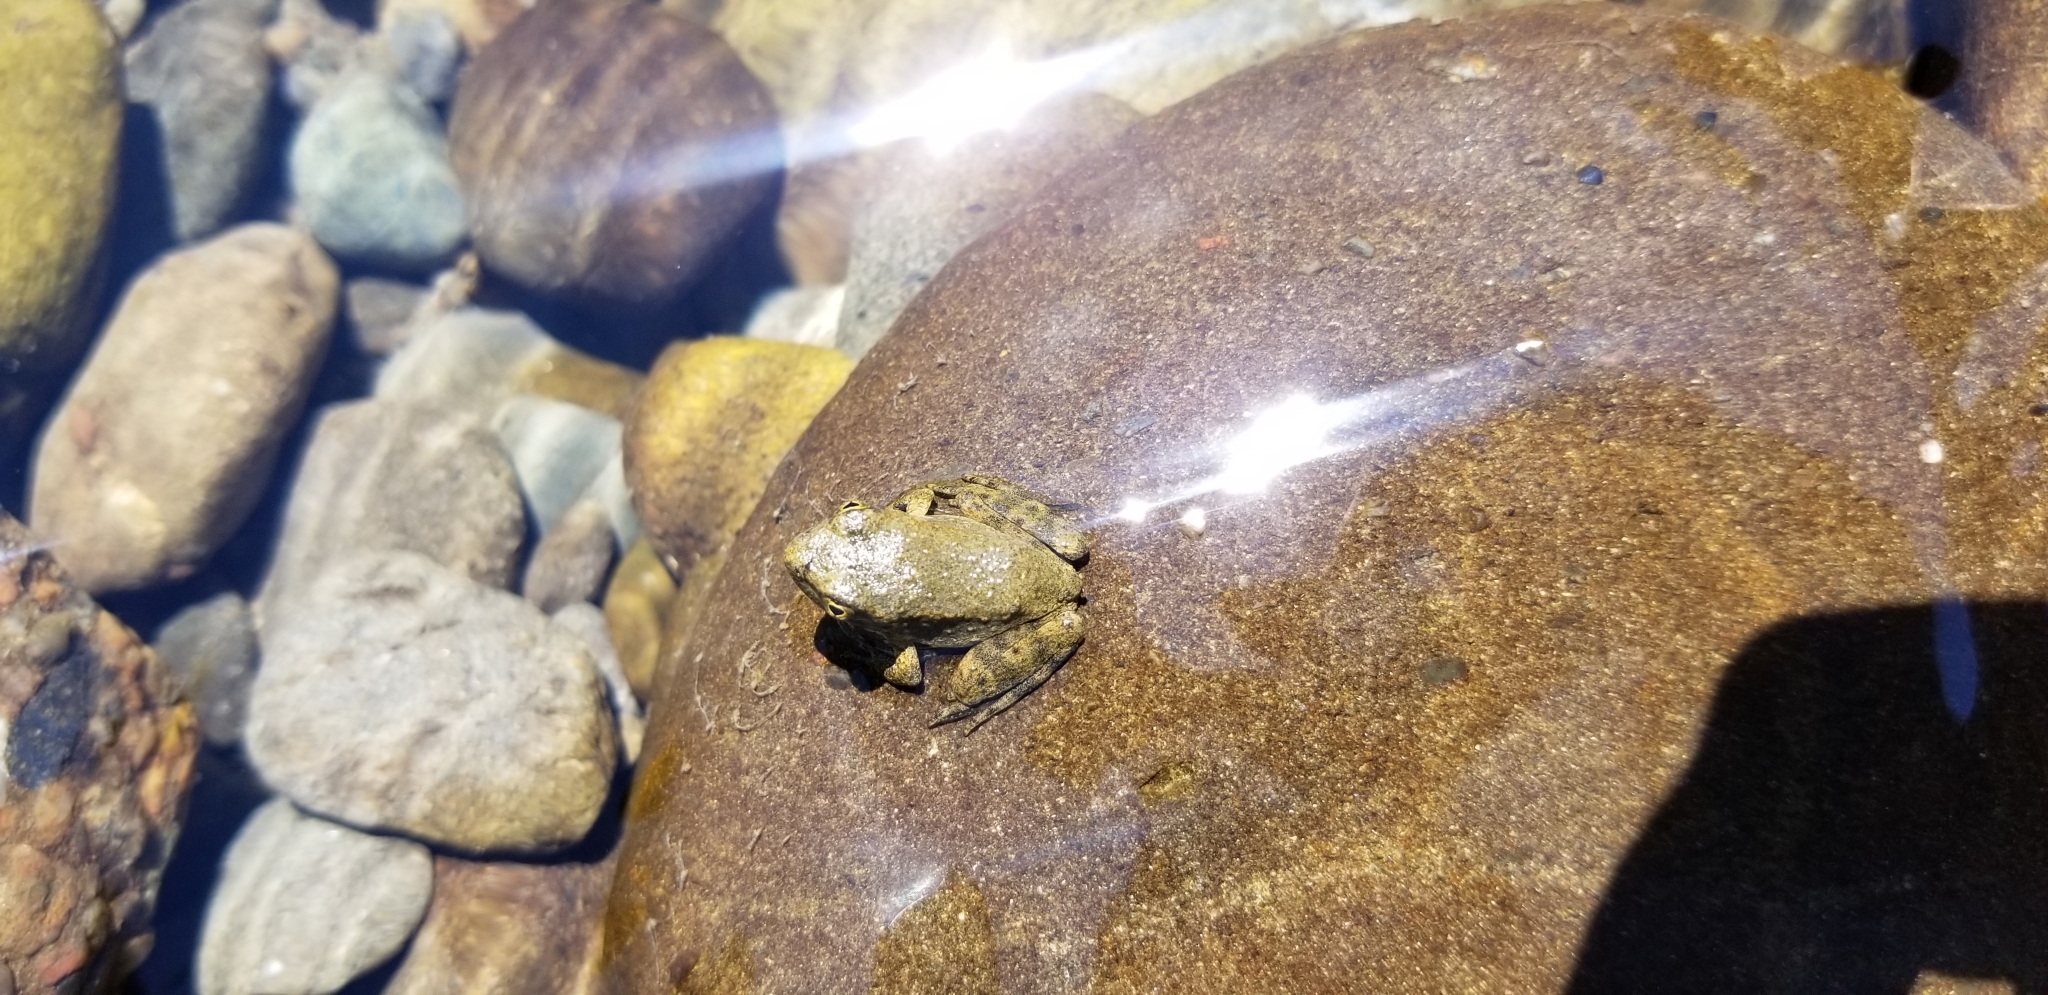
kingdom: Animalia
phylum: Chordata
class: Amphibia
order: Anura
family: Ranidae
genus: Rana
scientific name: Rana boylii
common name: Foothill yellow-legged frog
